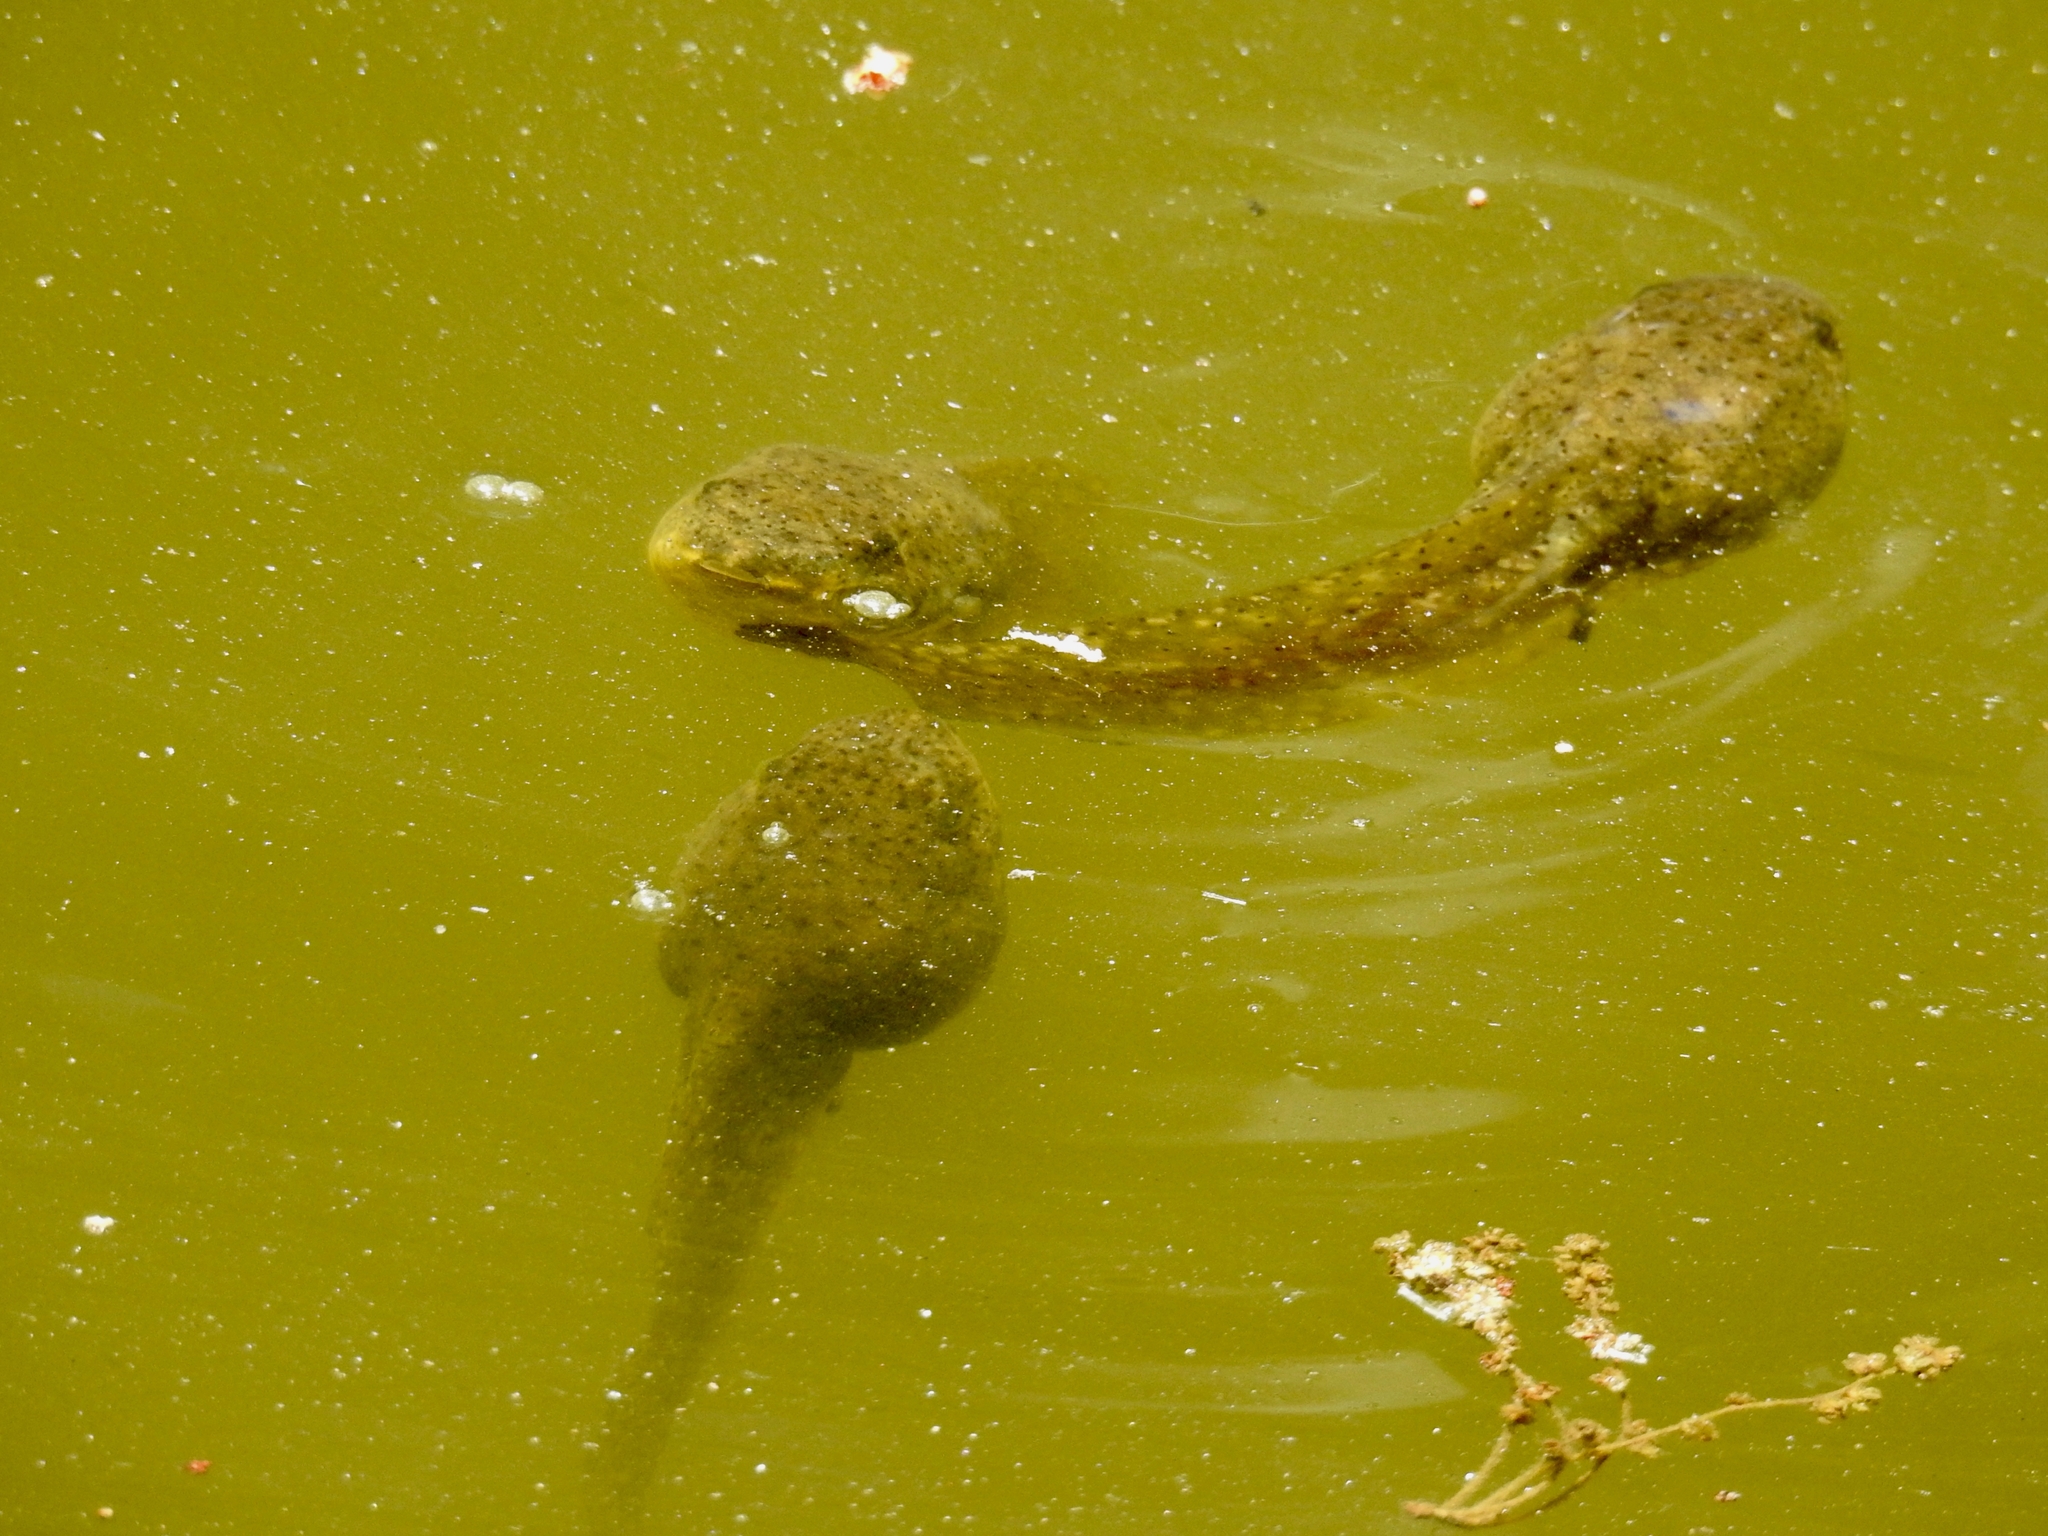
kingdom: Animalia
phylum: Chordata
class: Amphibia
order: Anura
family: Ranidae
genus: Lithobates
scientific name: Lithobates catesbeianus
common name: American bullfrog
